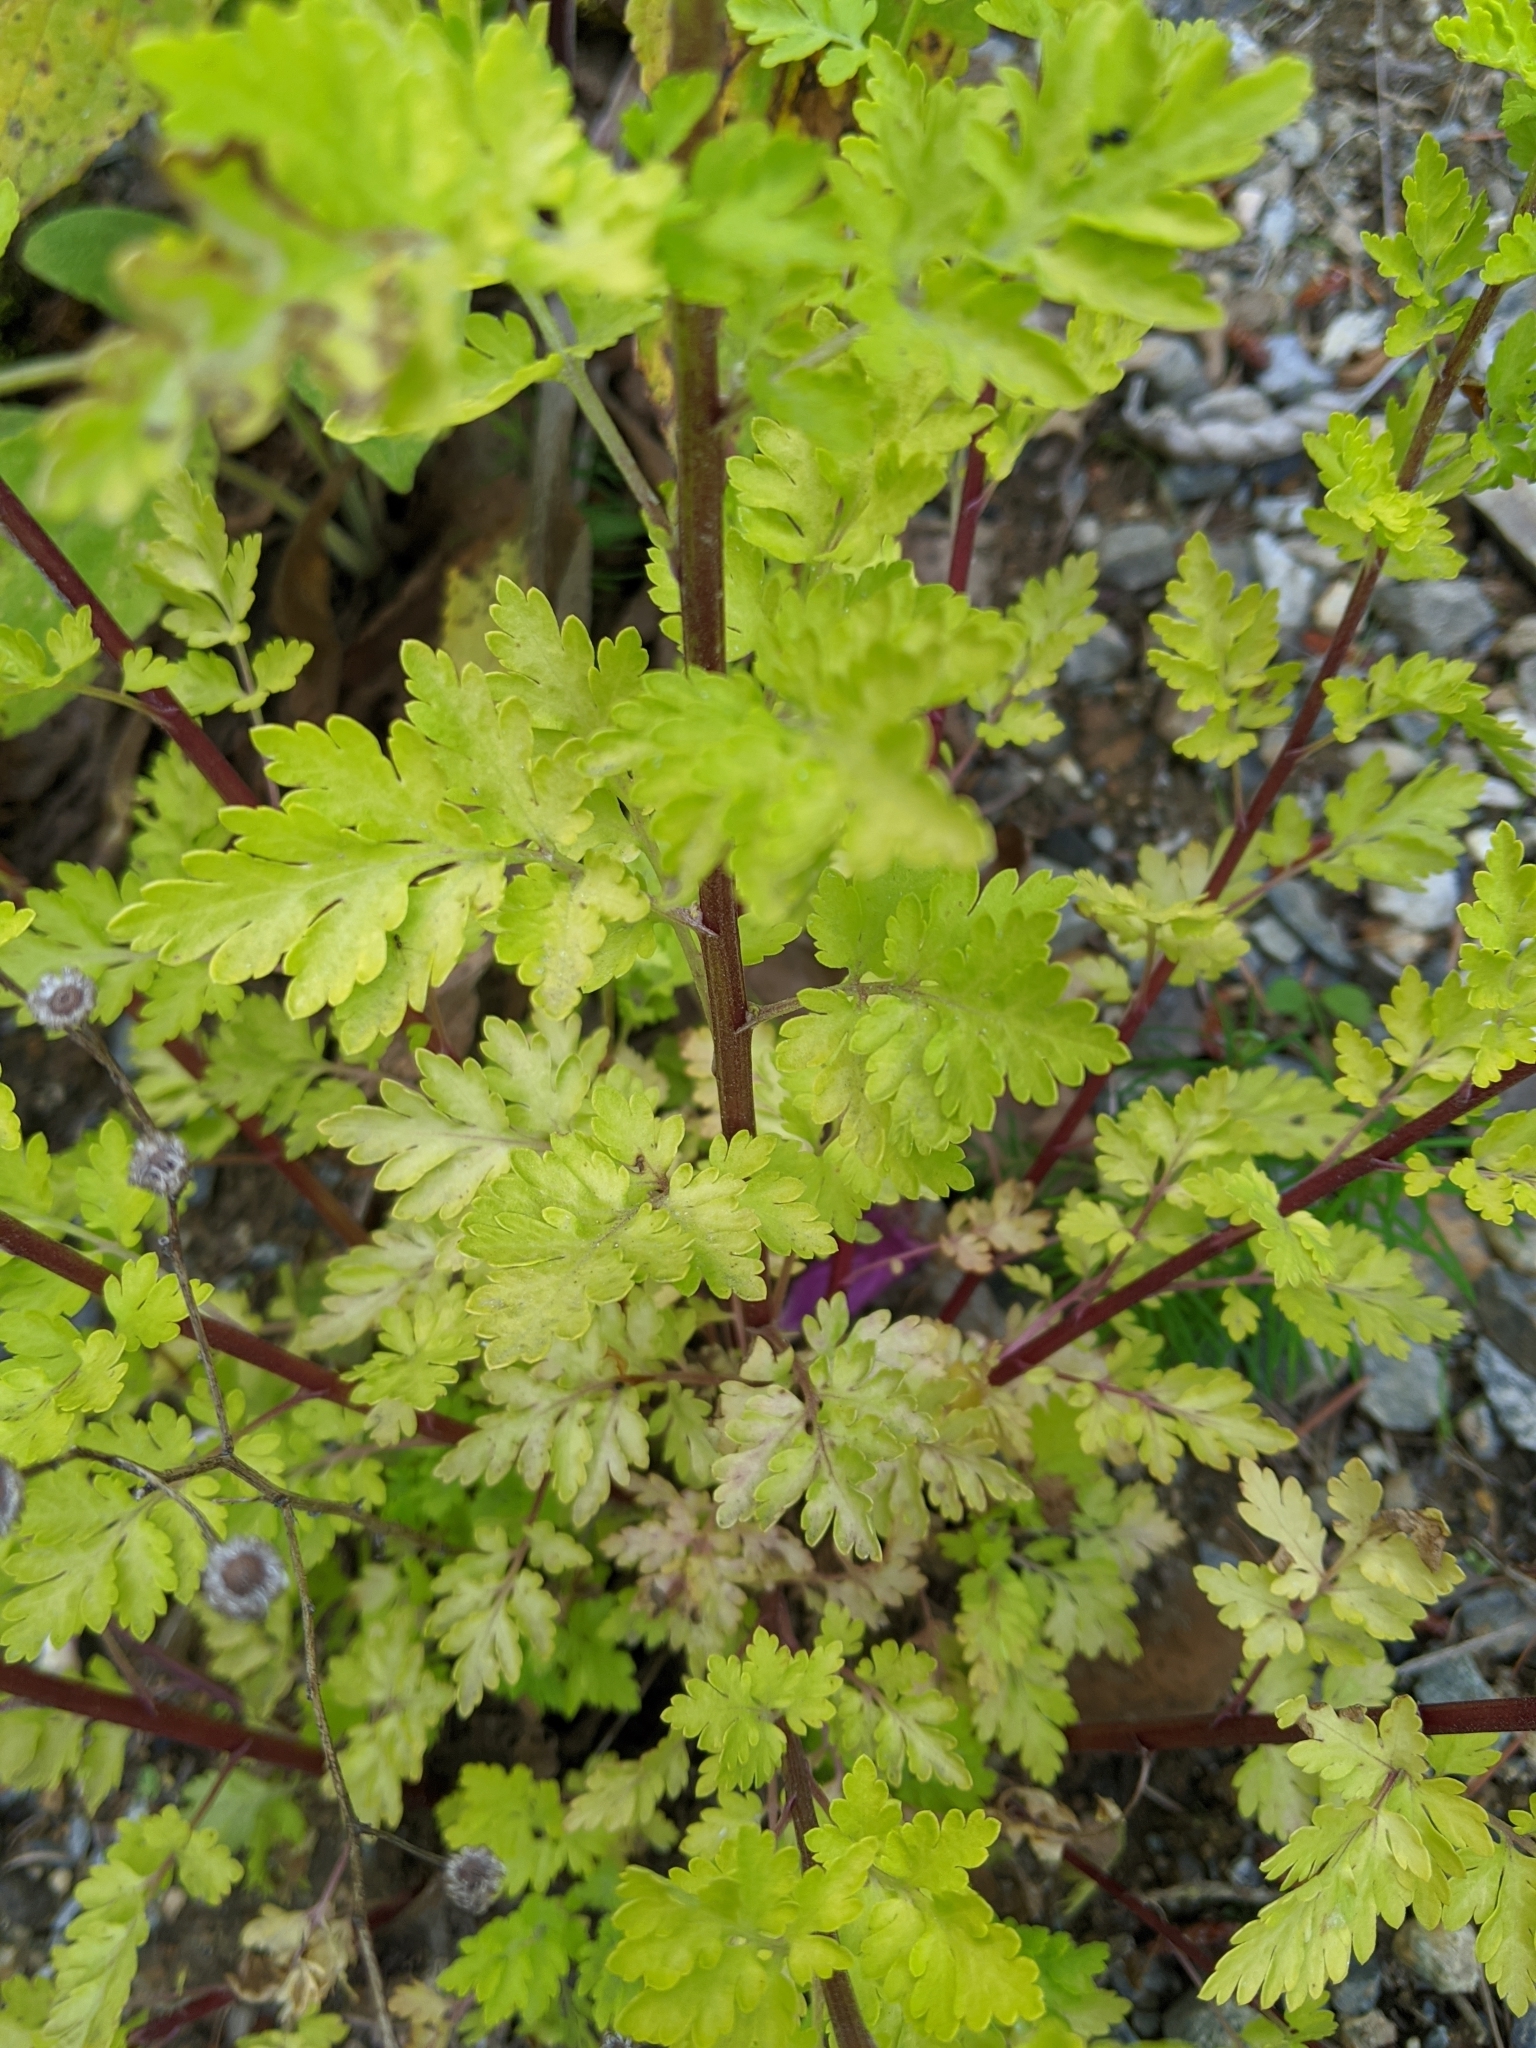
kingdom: Plantae
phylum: Tracheophyta
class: Magnoliopsida
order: Asterales
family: Asteraceae
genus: Tanacetum
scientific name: Tanacetum parthenium
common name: Feverfew
